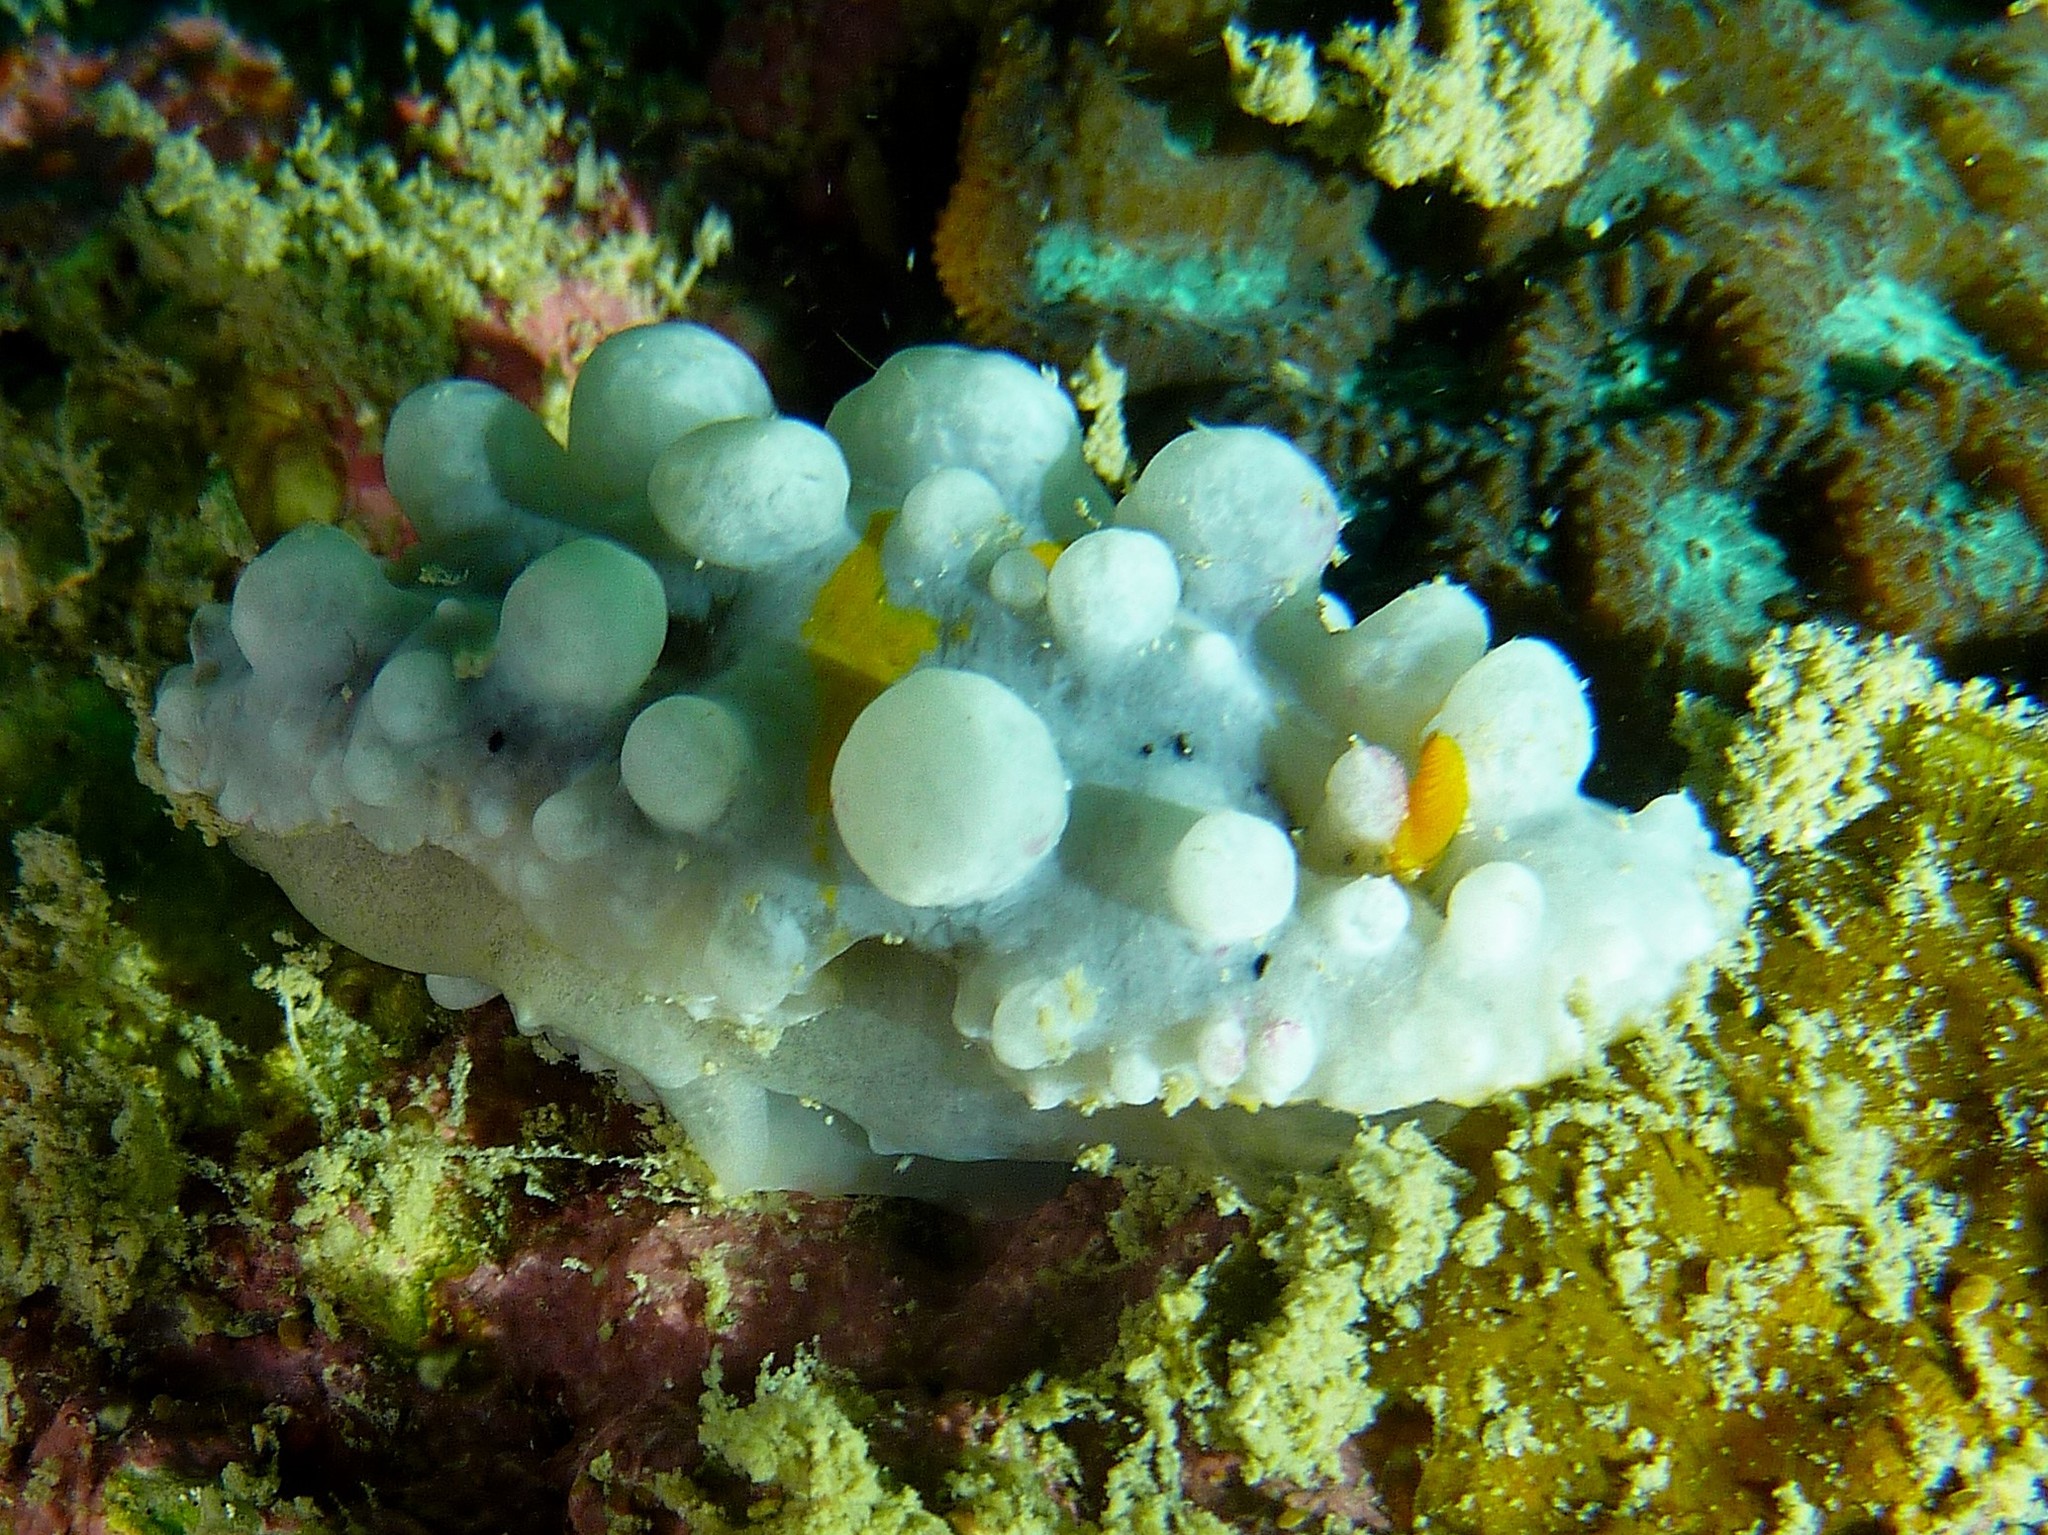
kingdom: Animalia
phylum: Mollusca
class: Gastropoda
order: Nudibranchia
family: Phyllidiidae
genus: Phyllidia
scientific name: Phyllidia ocellata
